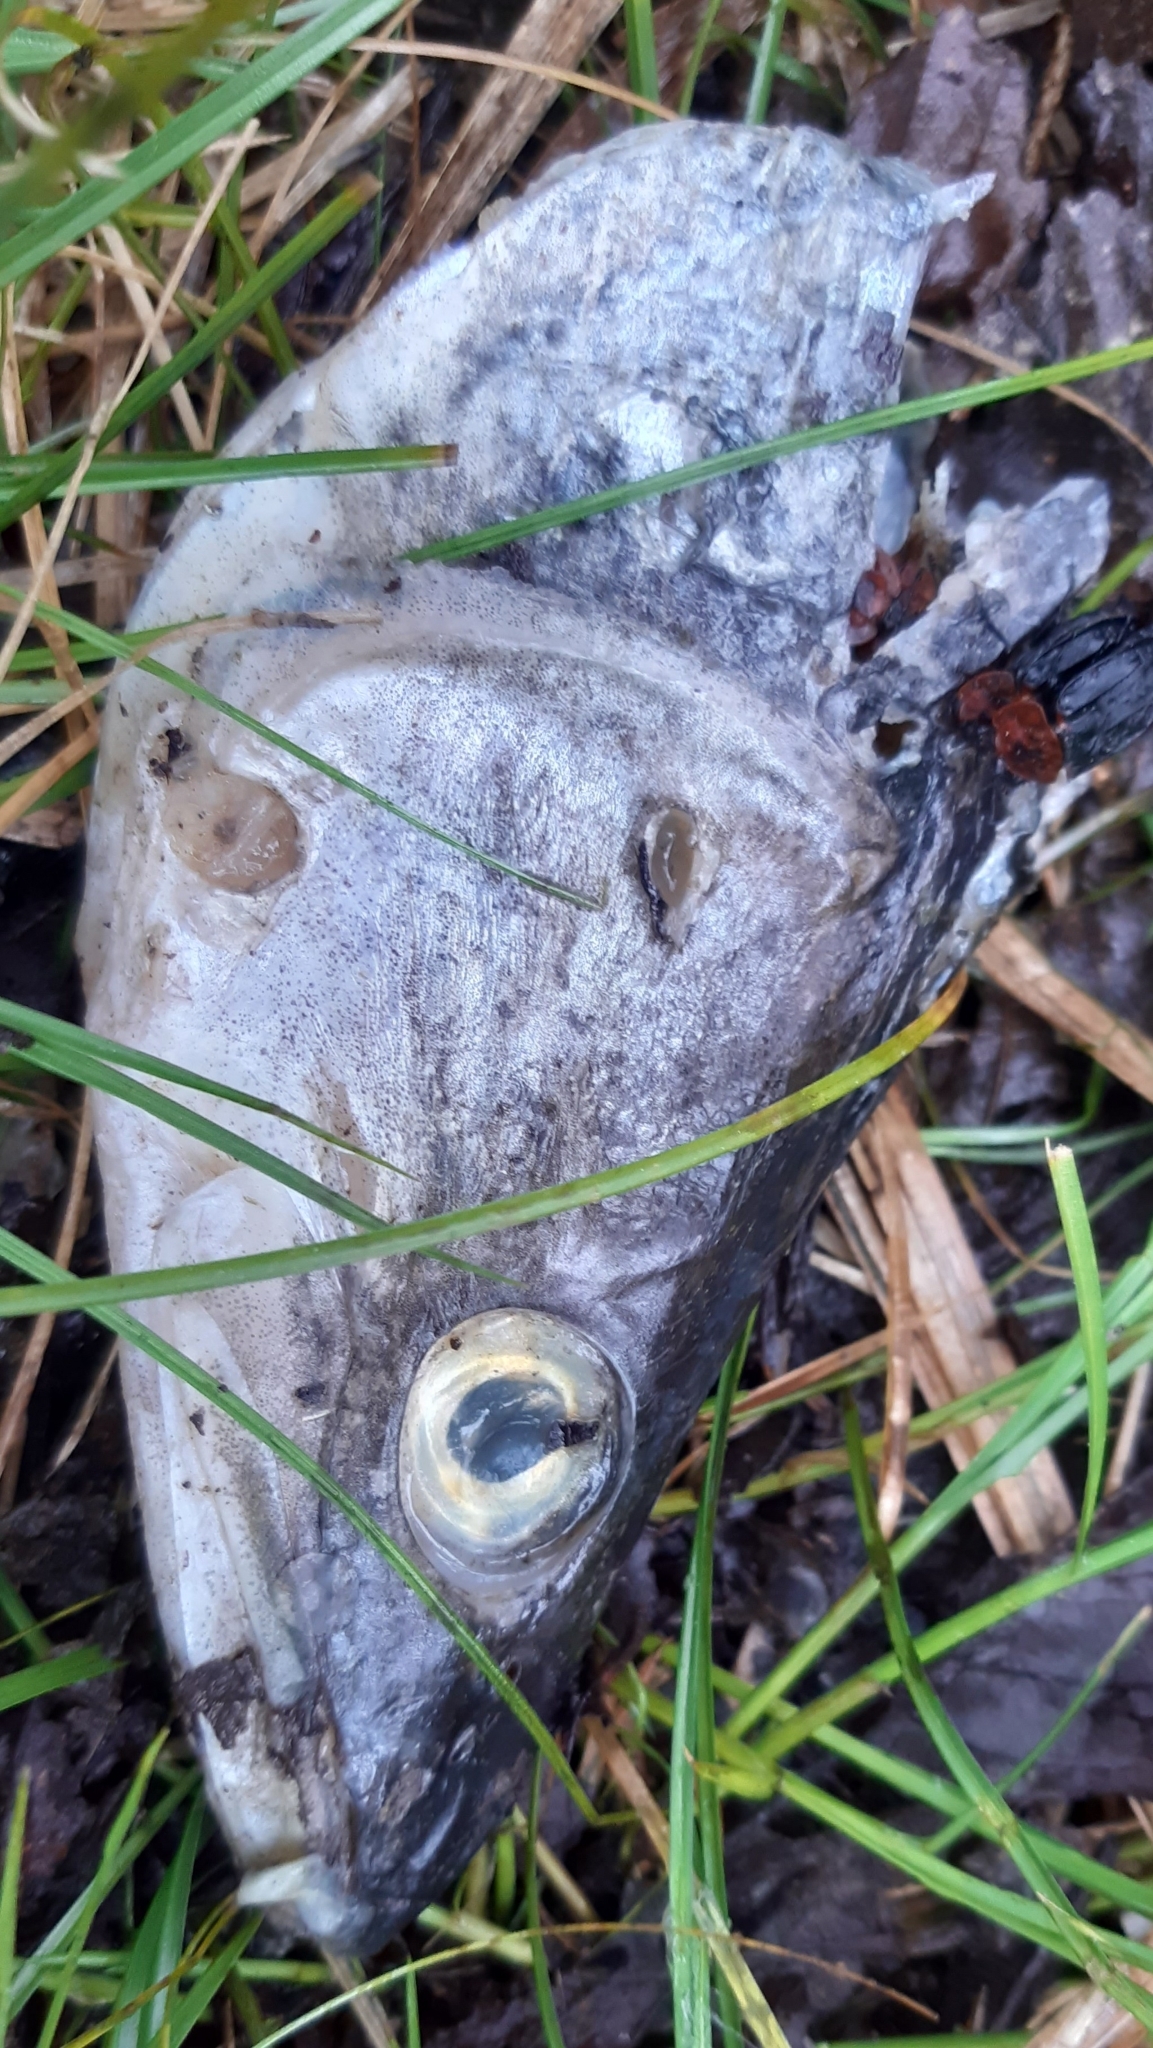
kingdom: Animalia
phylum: Chordata
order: Perciformes
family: Percidae
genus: Sander
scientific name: Sander lucioperca
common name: Pikeperch
